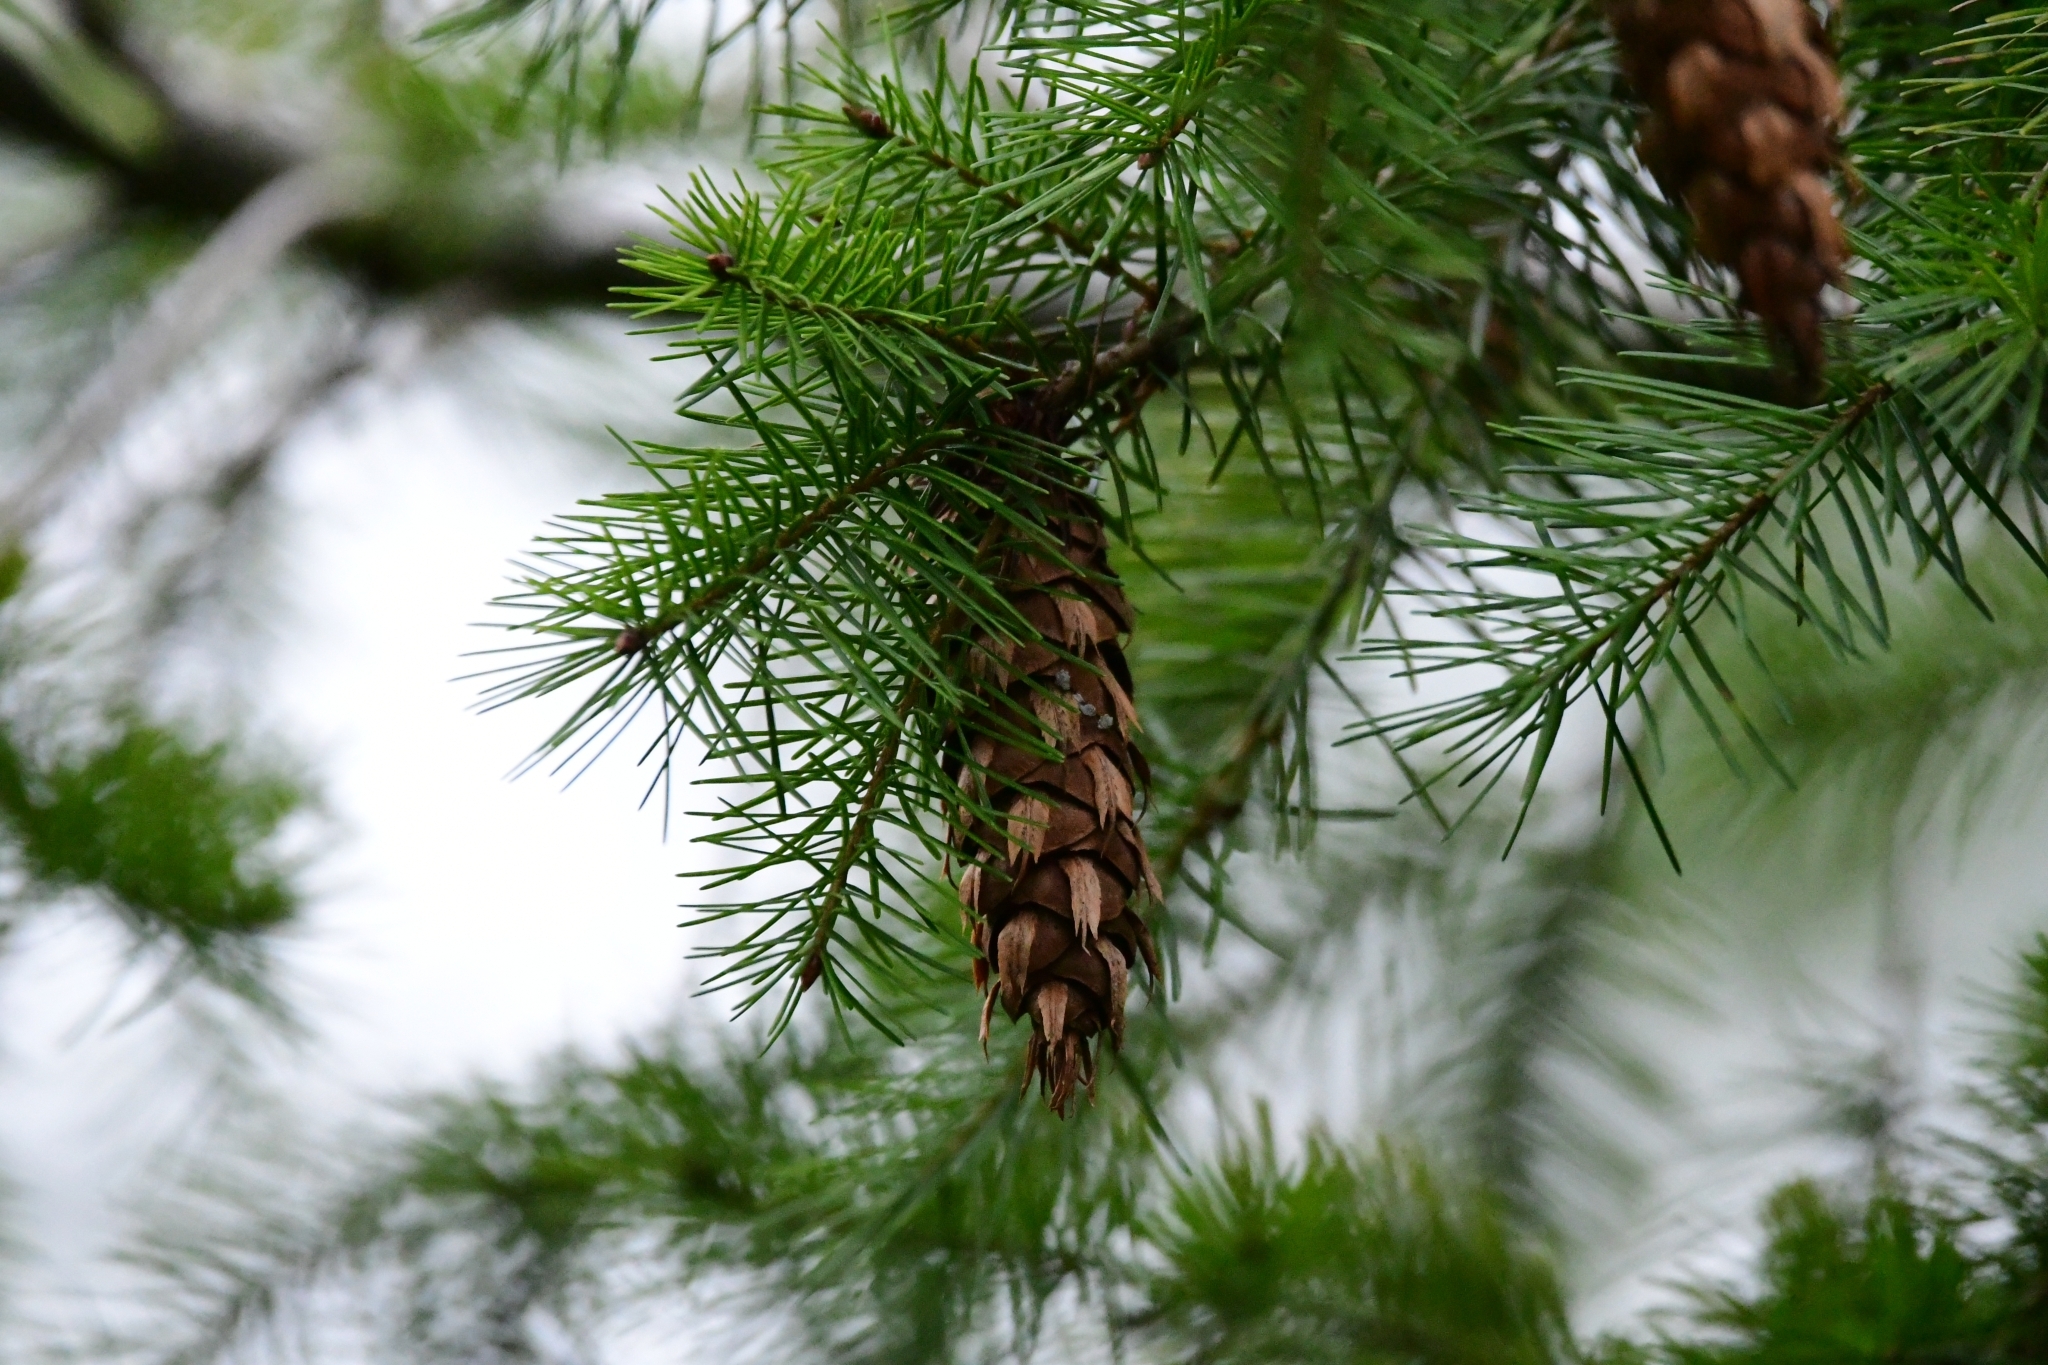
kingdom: Plantae
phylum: Tracheophyta
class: Pinopsida
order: Pinales
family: Pinaceae
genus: Pseudotsuga
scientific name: Pseudotsuga menziesii
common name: Douglas fir
